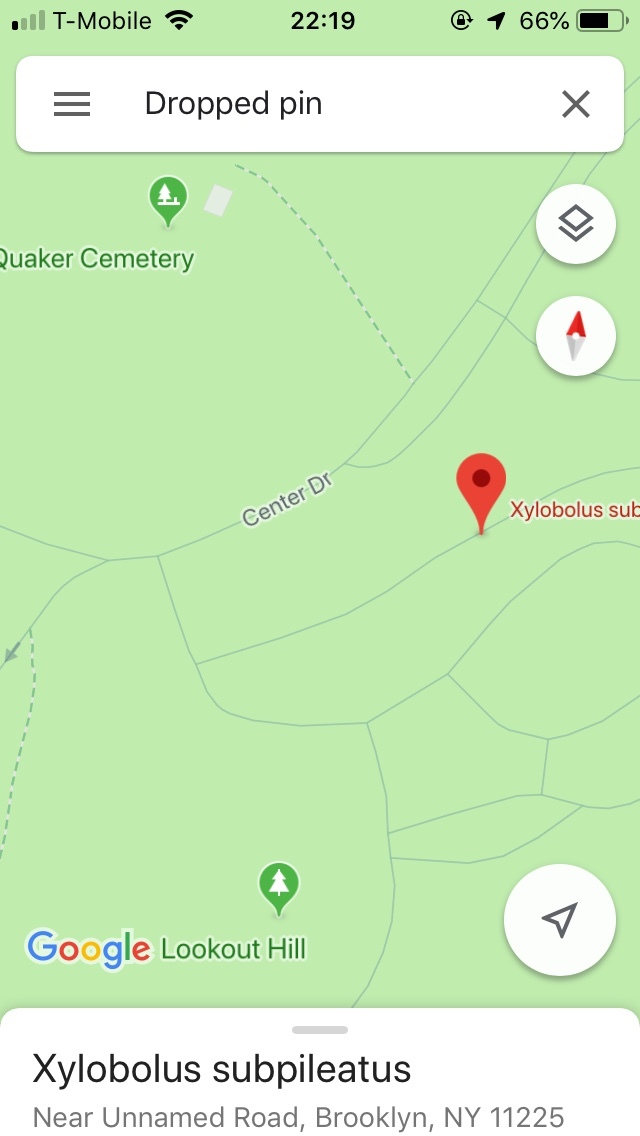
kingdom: Fungi
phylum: Basidiomycota
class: Agaricomycetes
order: Russulales
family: Stereaceae
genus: Xylobolus
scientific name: Xylobolus subpileatus
